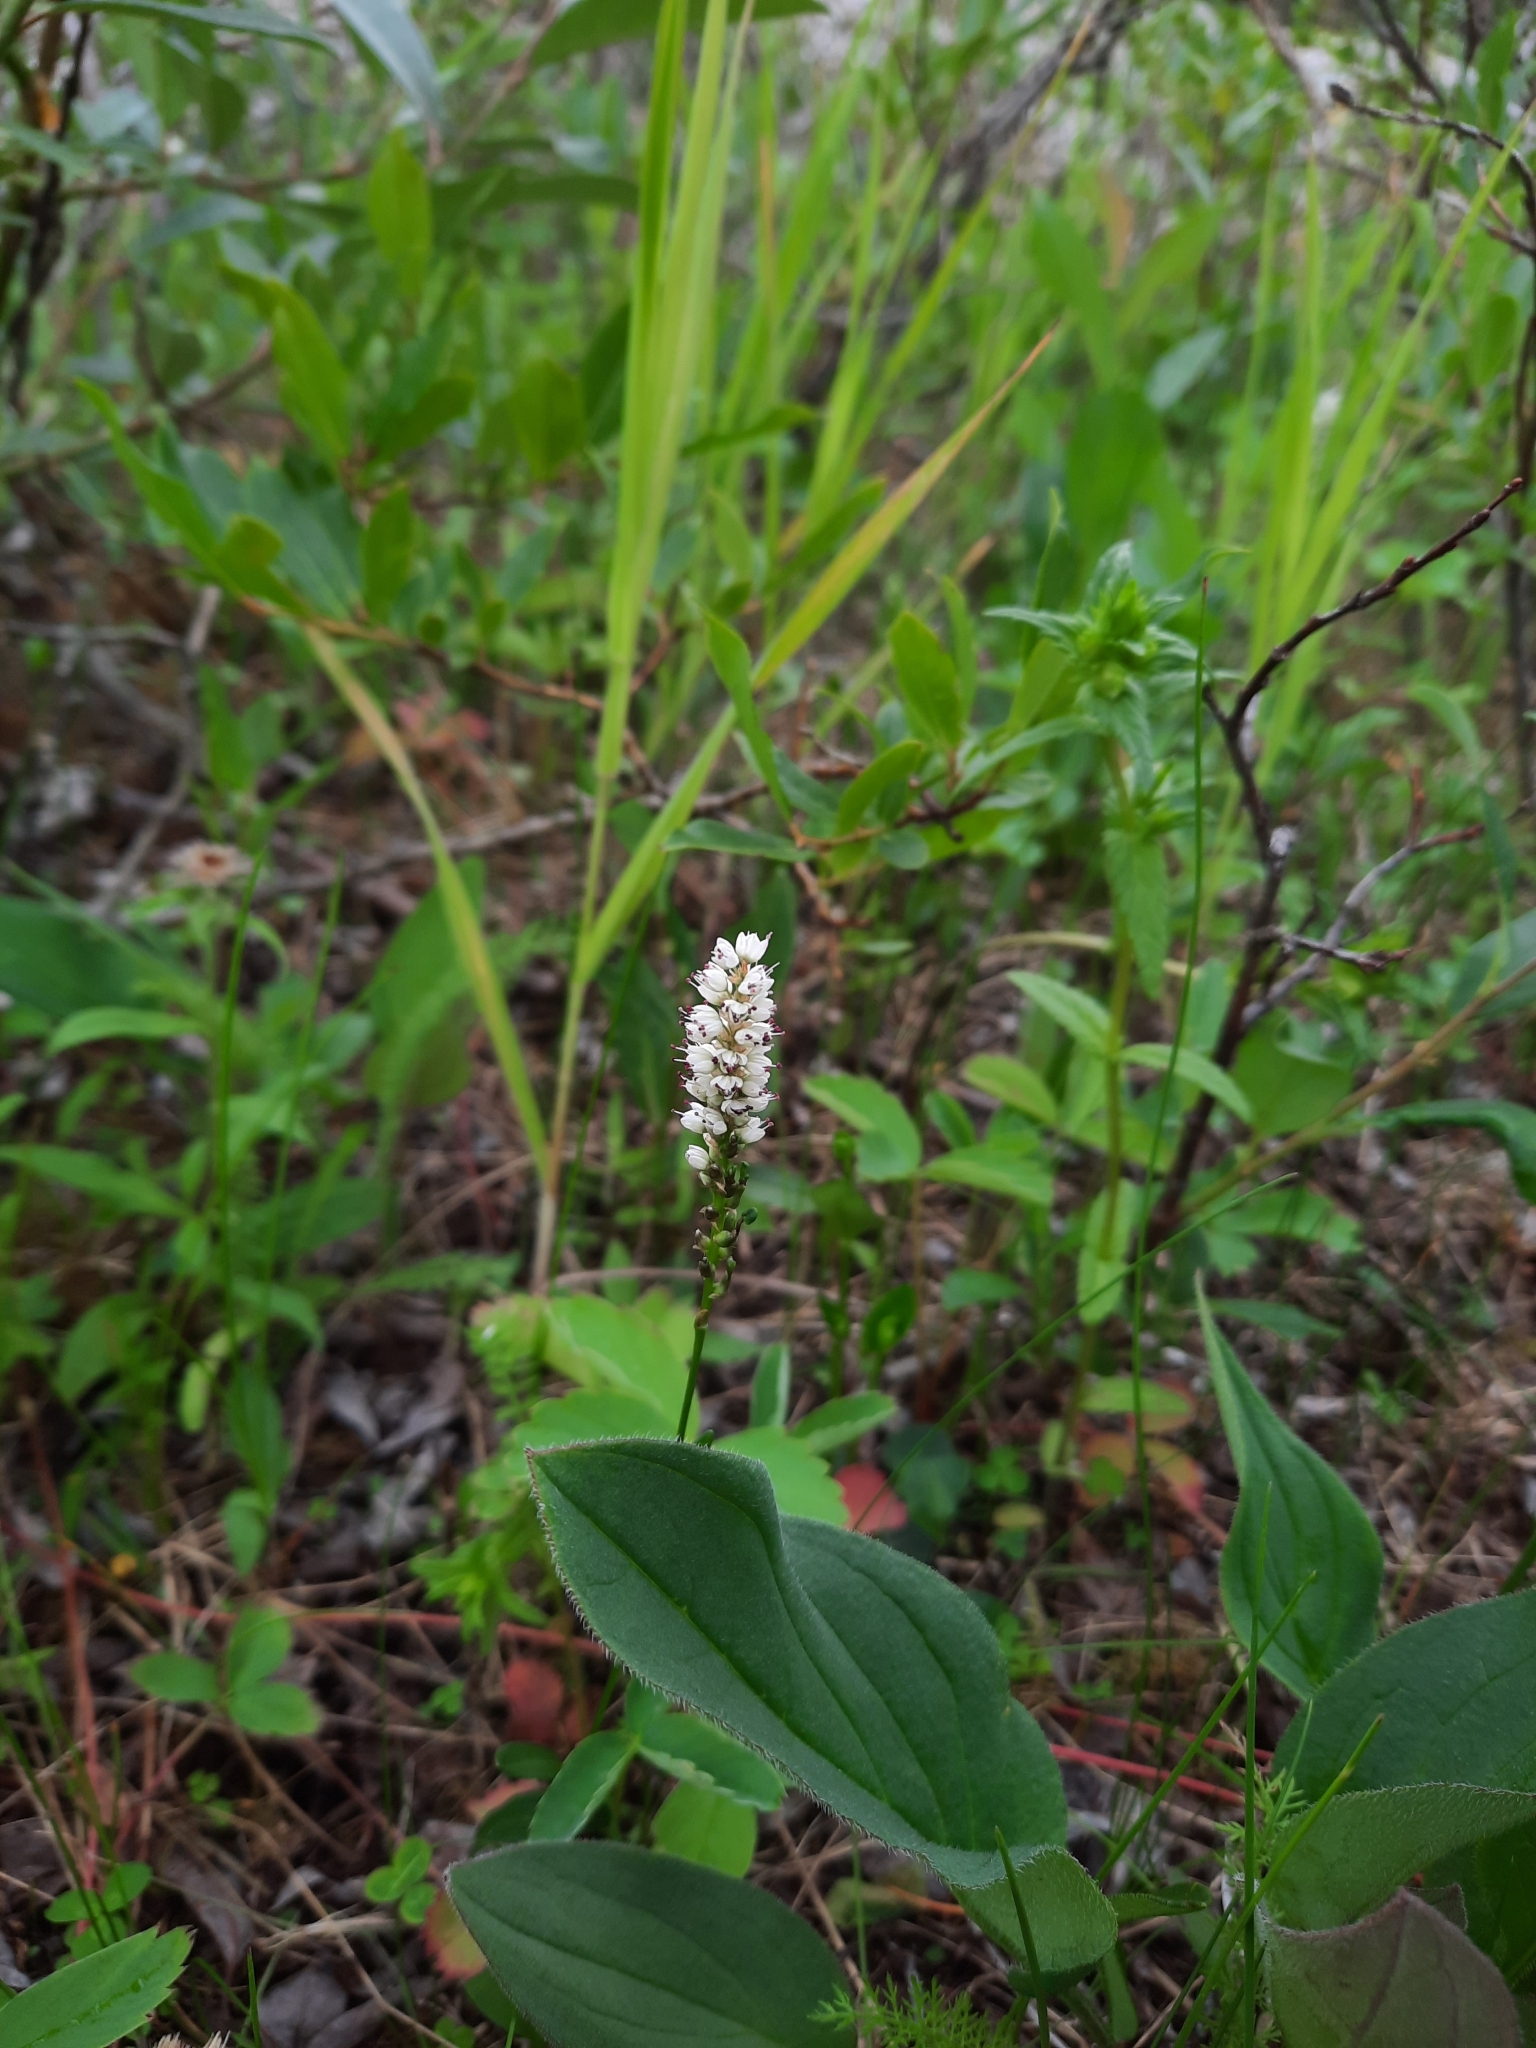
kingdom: Plantae
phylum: Tracheophyta
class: Magnoliopsida
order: Caryophyllales
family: Polygonaceae
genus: Bistorta
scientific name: Bistorta vivipara
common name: Alpine bistort
